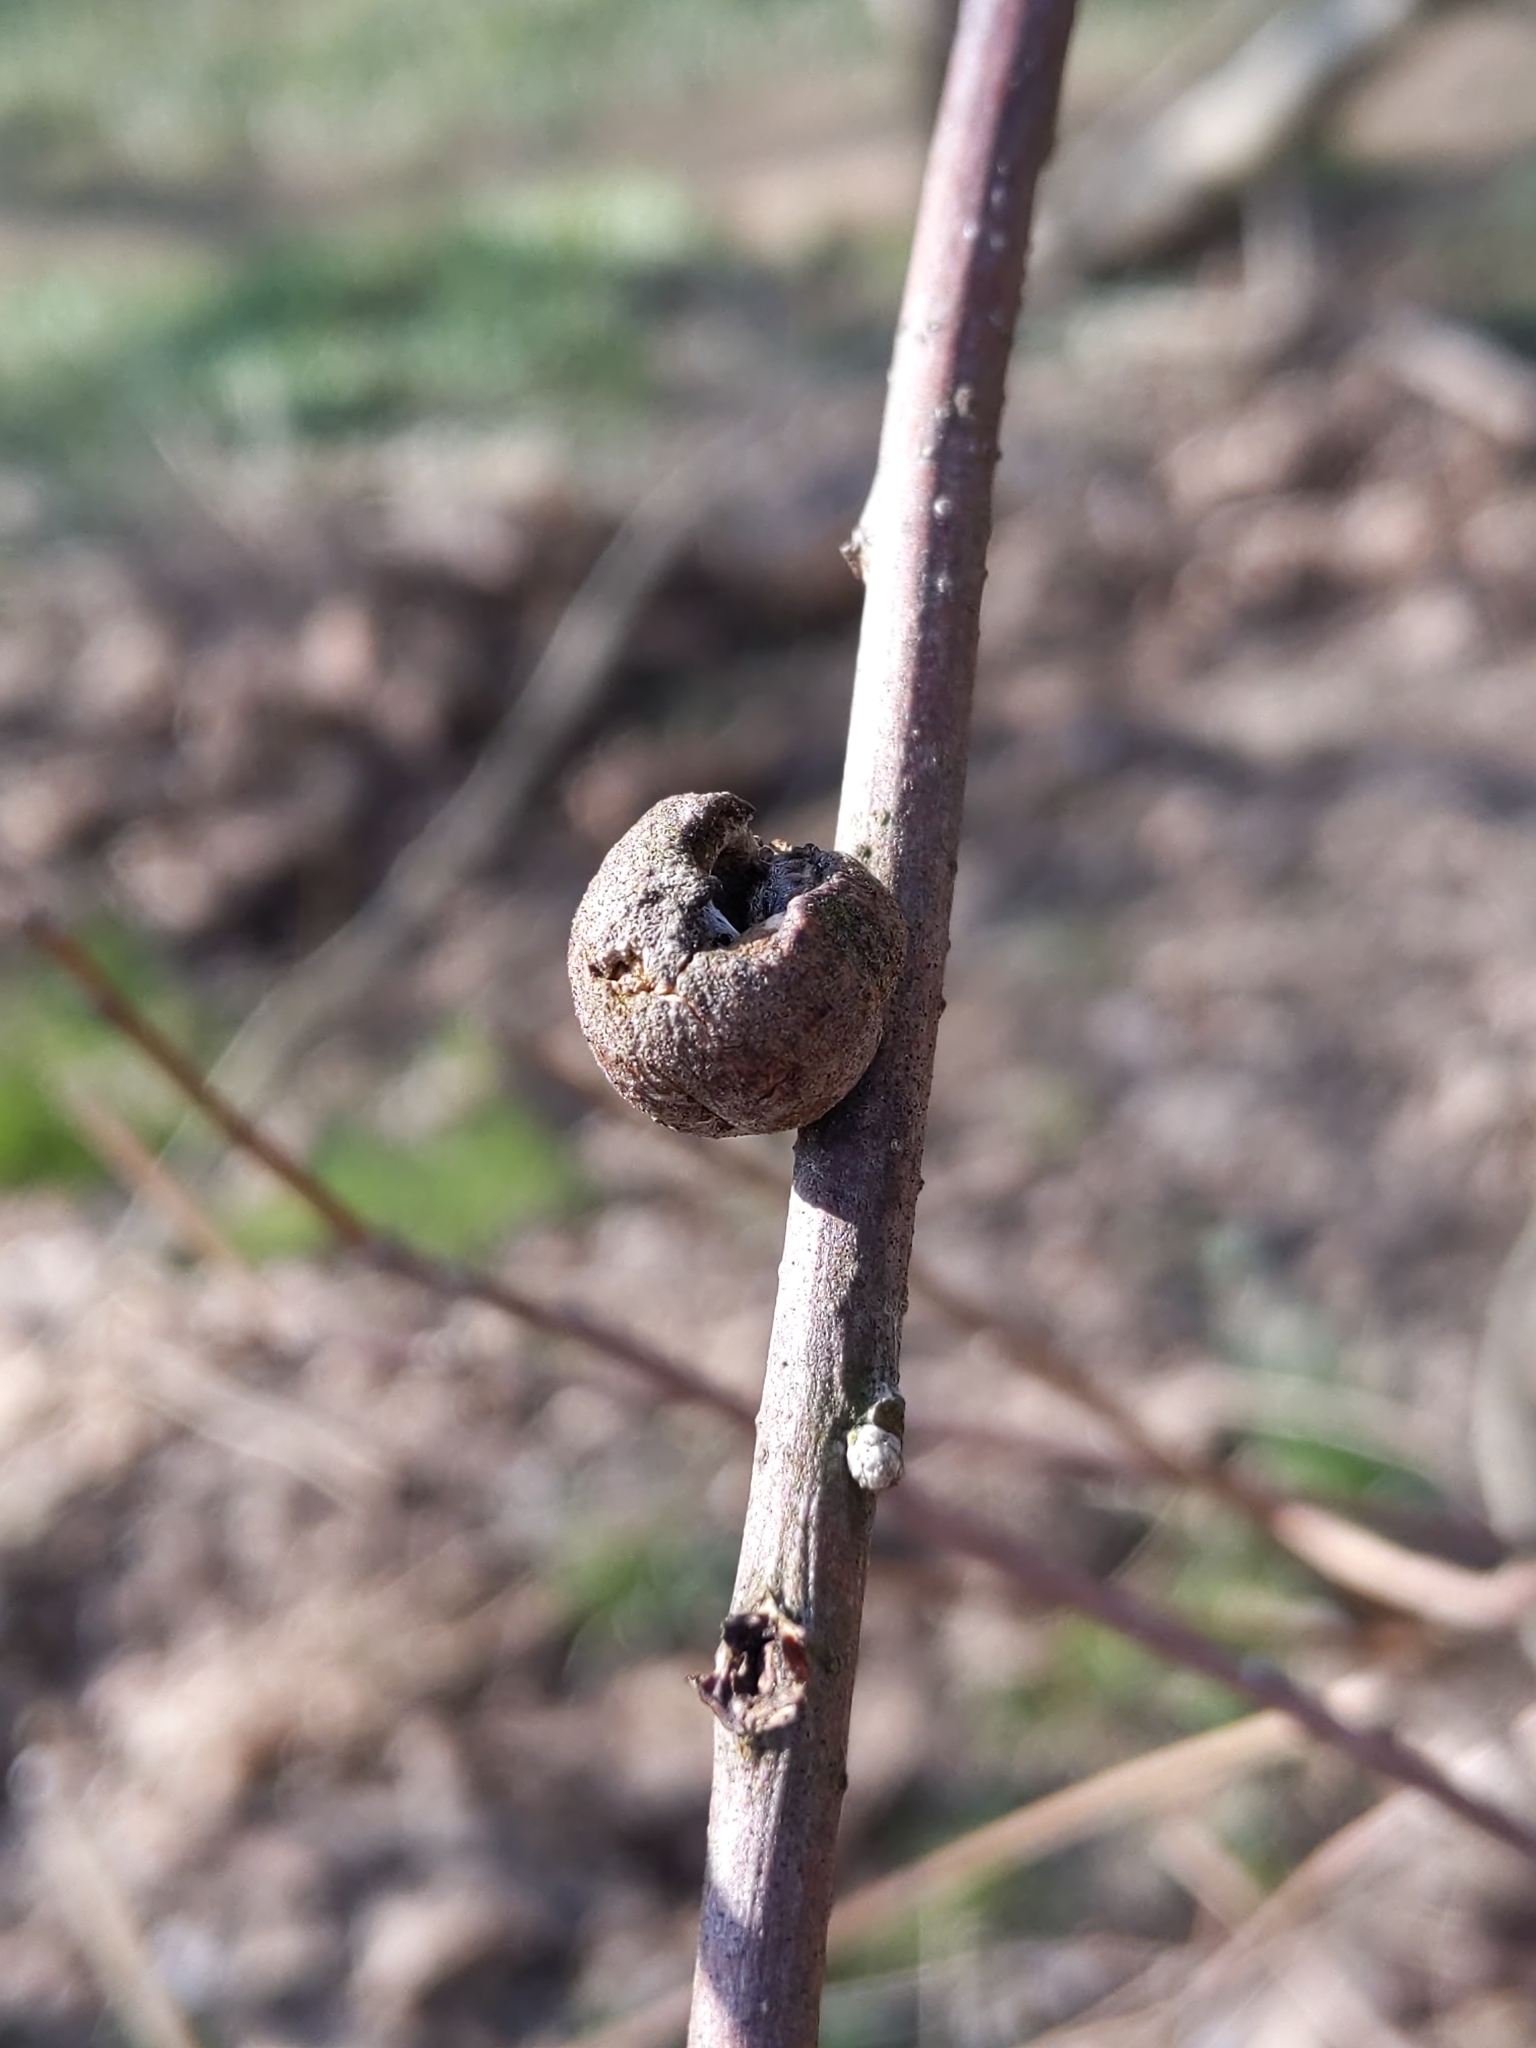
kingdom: Animalia
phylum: Arthropoda
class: Insecta
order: Hymenoptera
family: Cynipidae
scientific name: Cynipidae
